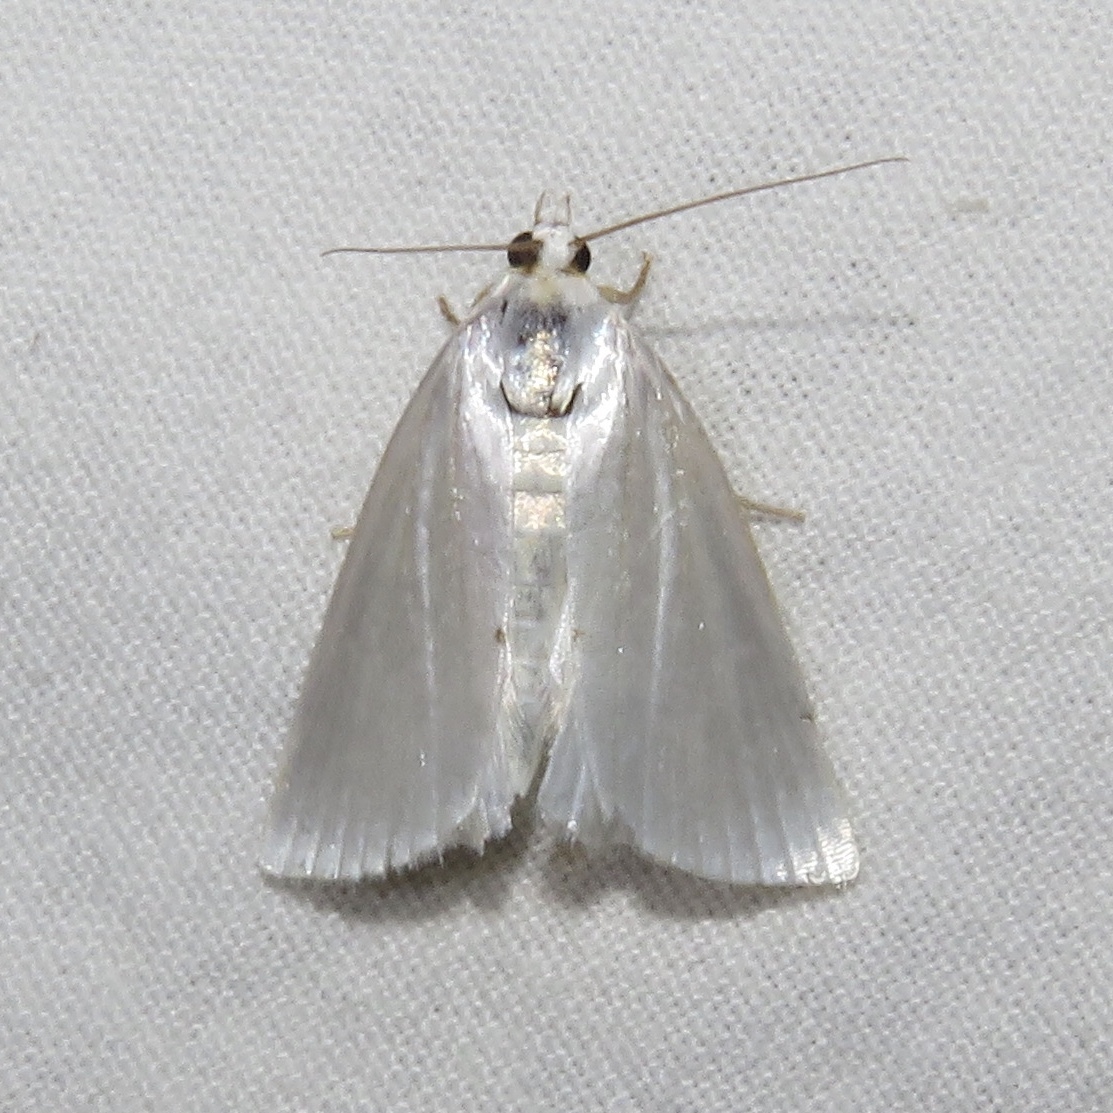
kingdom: Animalia
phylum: Arthropoda
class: Insecta
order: Lepidoptera
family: Crambidae
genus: Argyria
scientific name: Argyria nivalis
